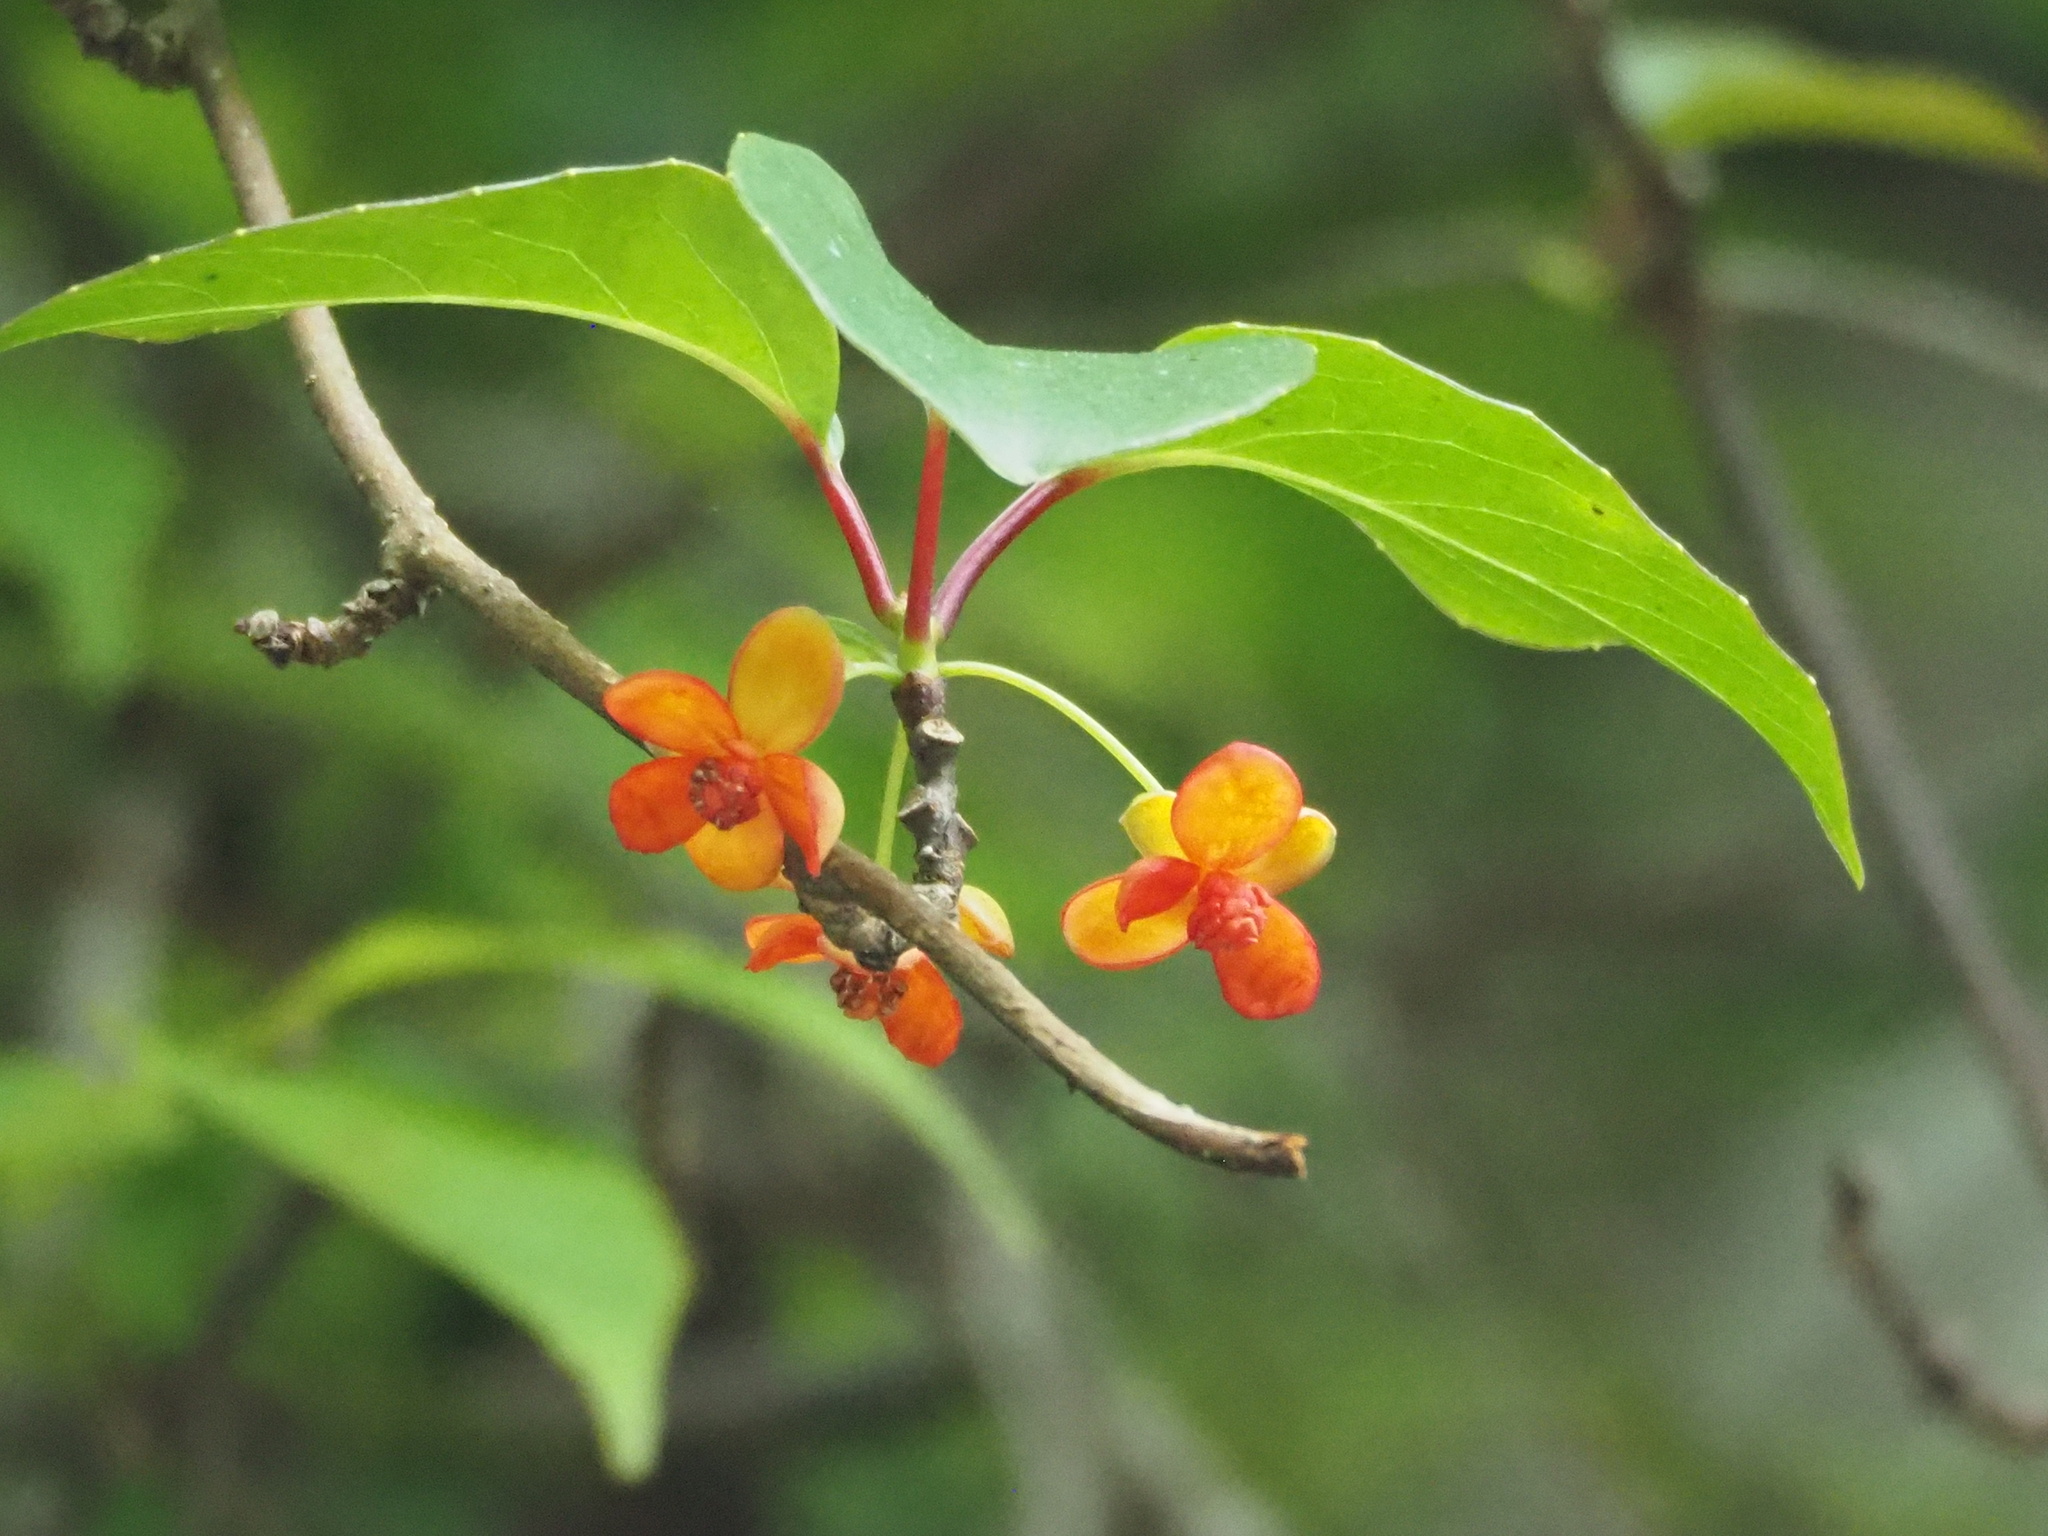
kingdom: Plantae
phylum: Tracheophyta
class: Magnoliopsida
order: Austrobaileyales
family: Schisandraceae
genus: Schisandra
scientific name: Schisandra arisanensis
